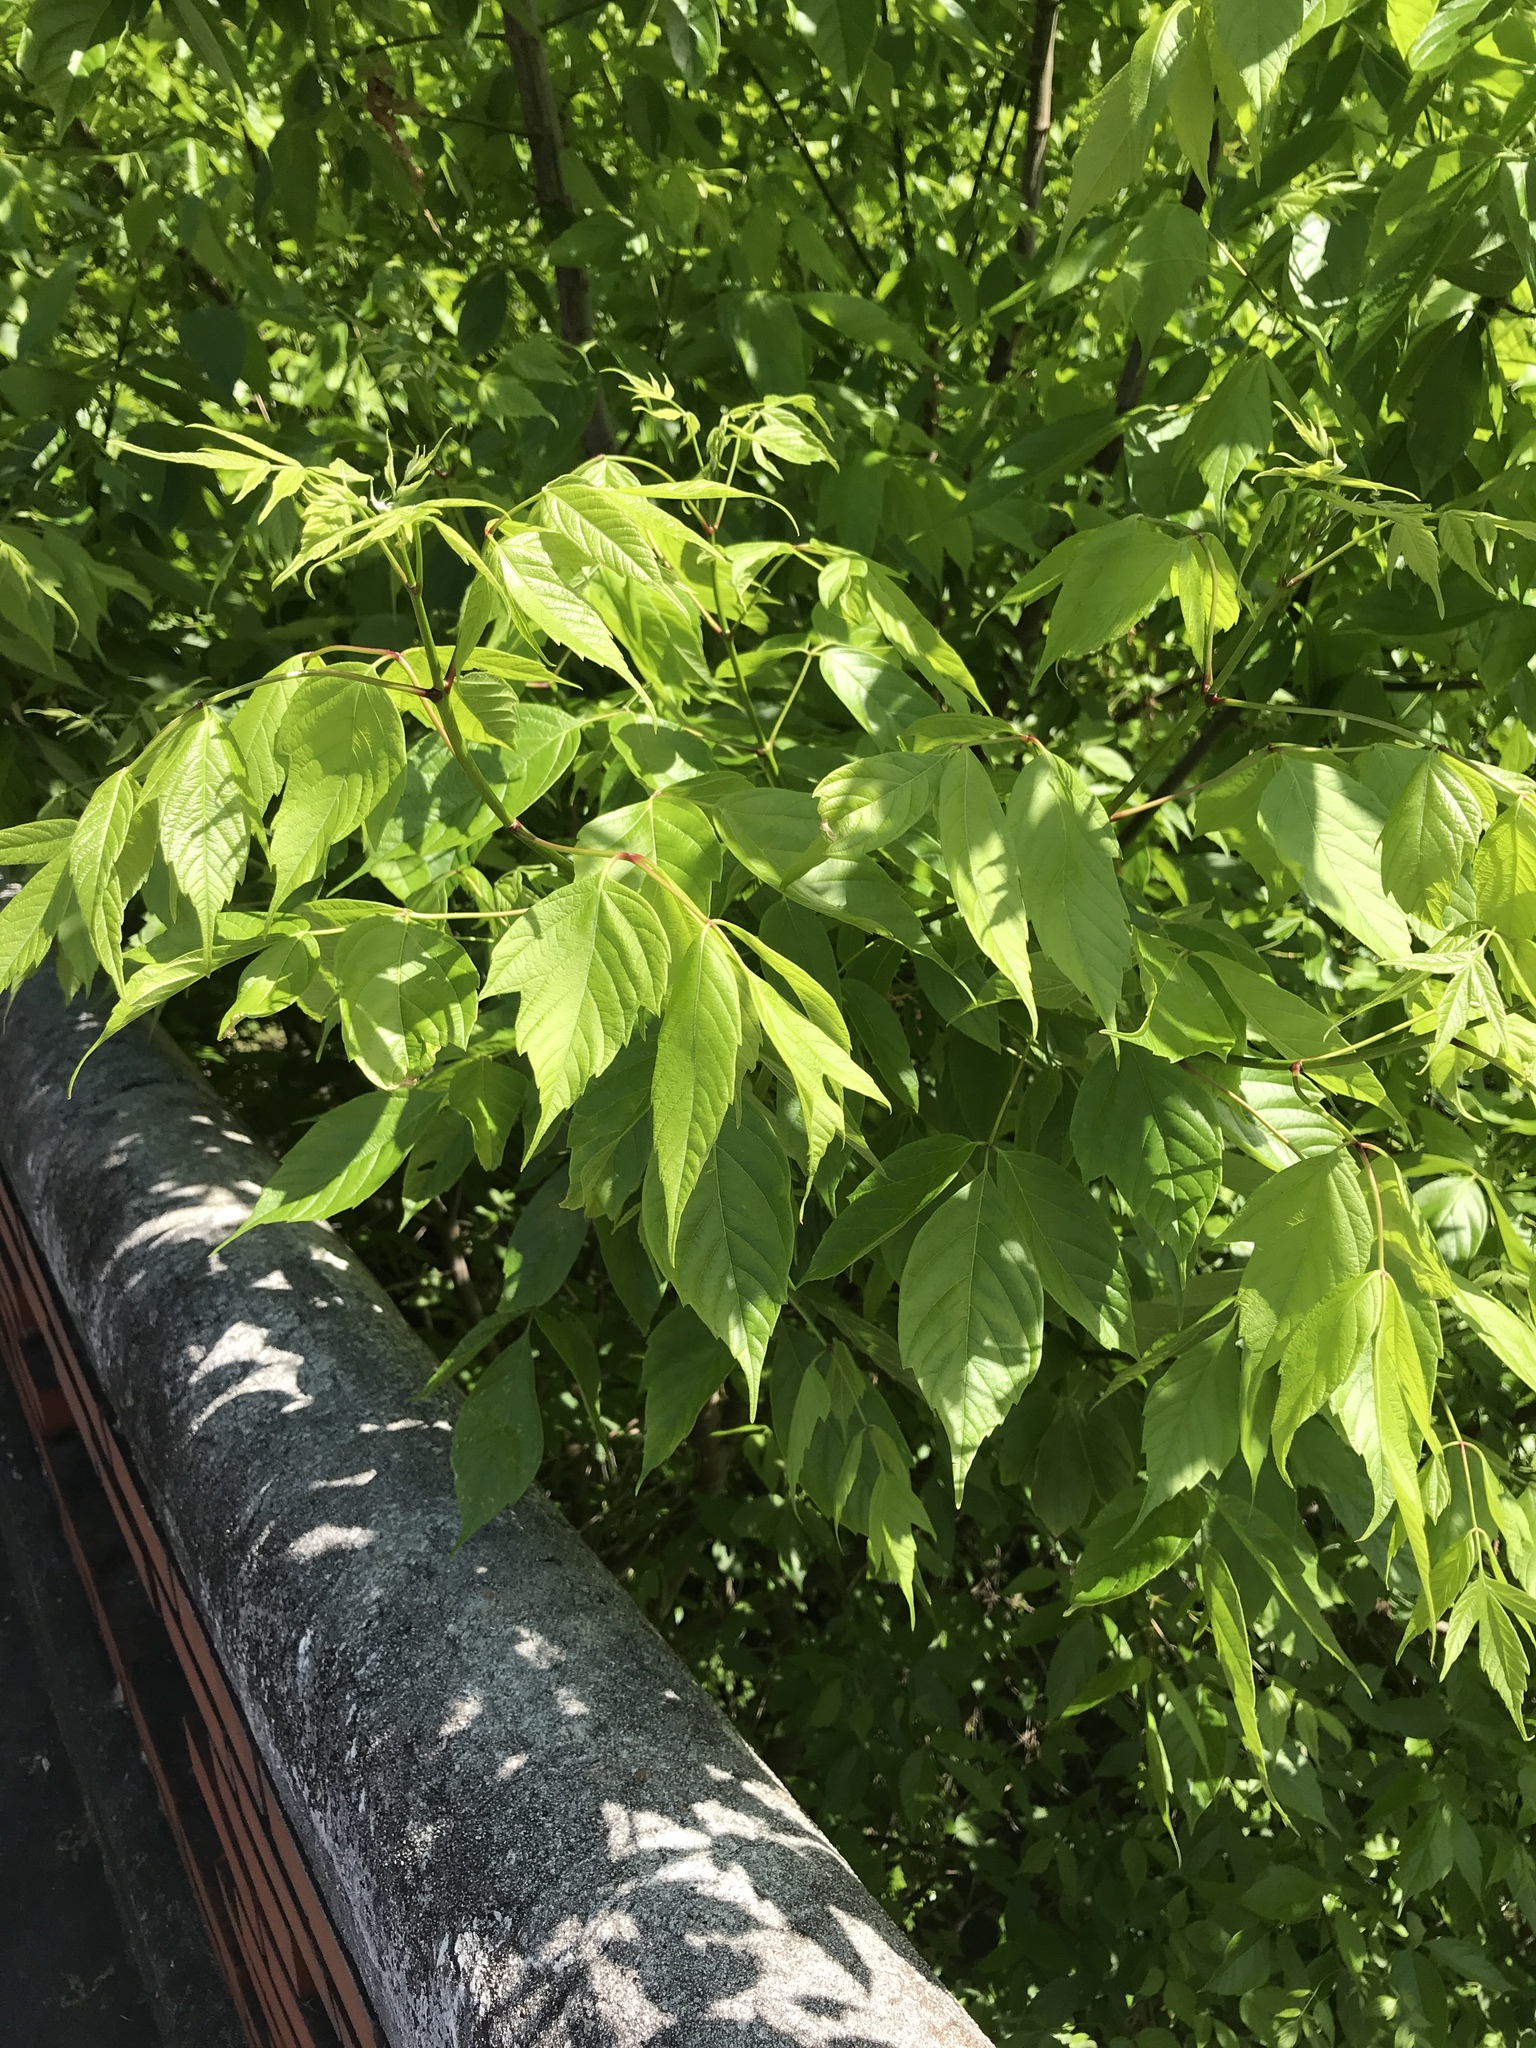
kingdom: Plantae
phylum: Tracheophyta
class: Magnoliopsida
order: Sapindales
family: Sapindaceae
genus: Acer
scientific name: Acer negundo
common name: Ashleaf maple
